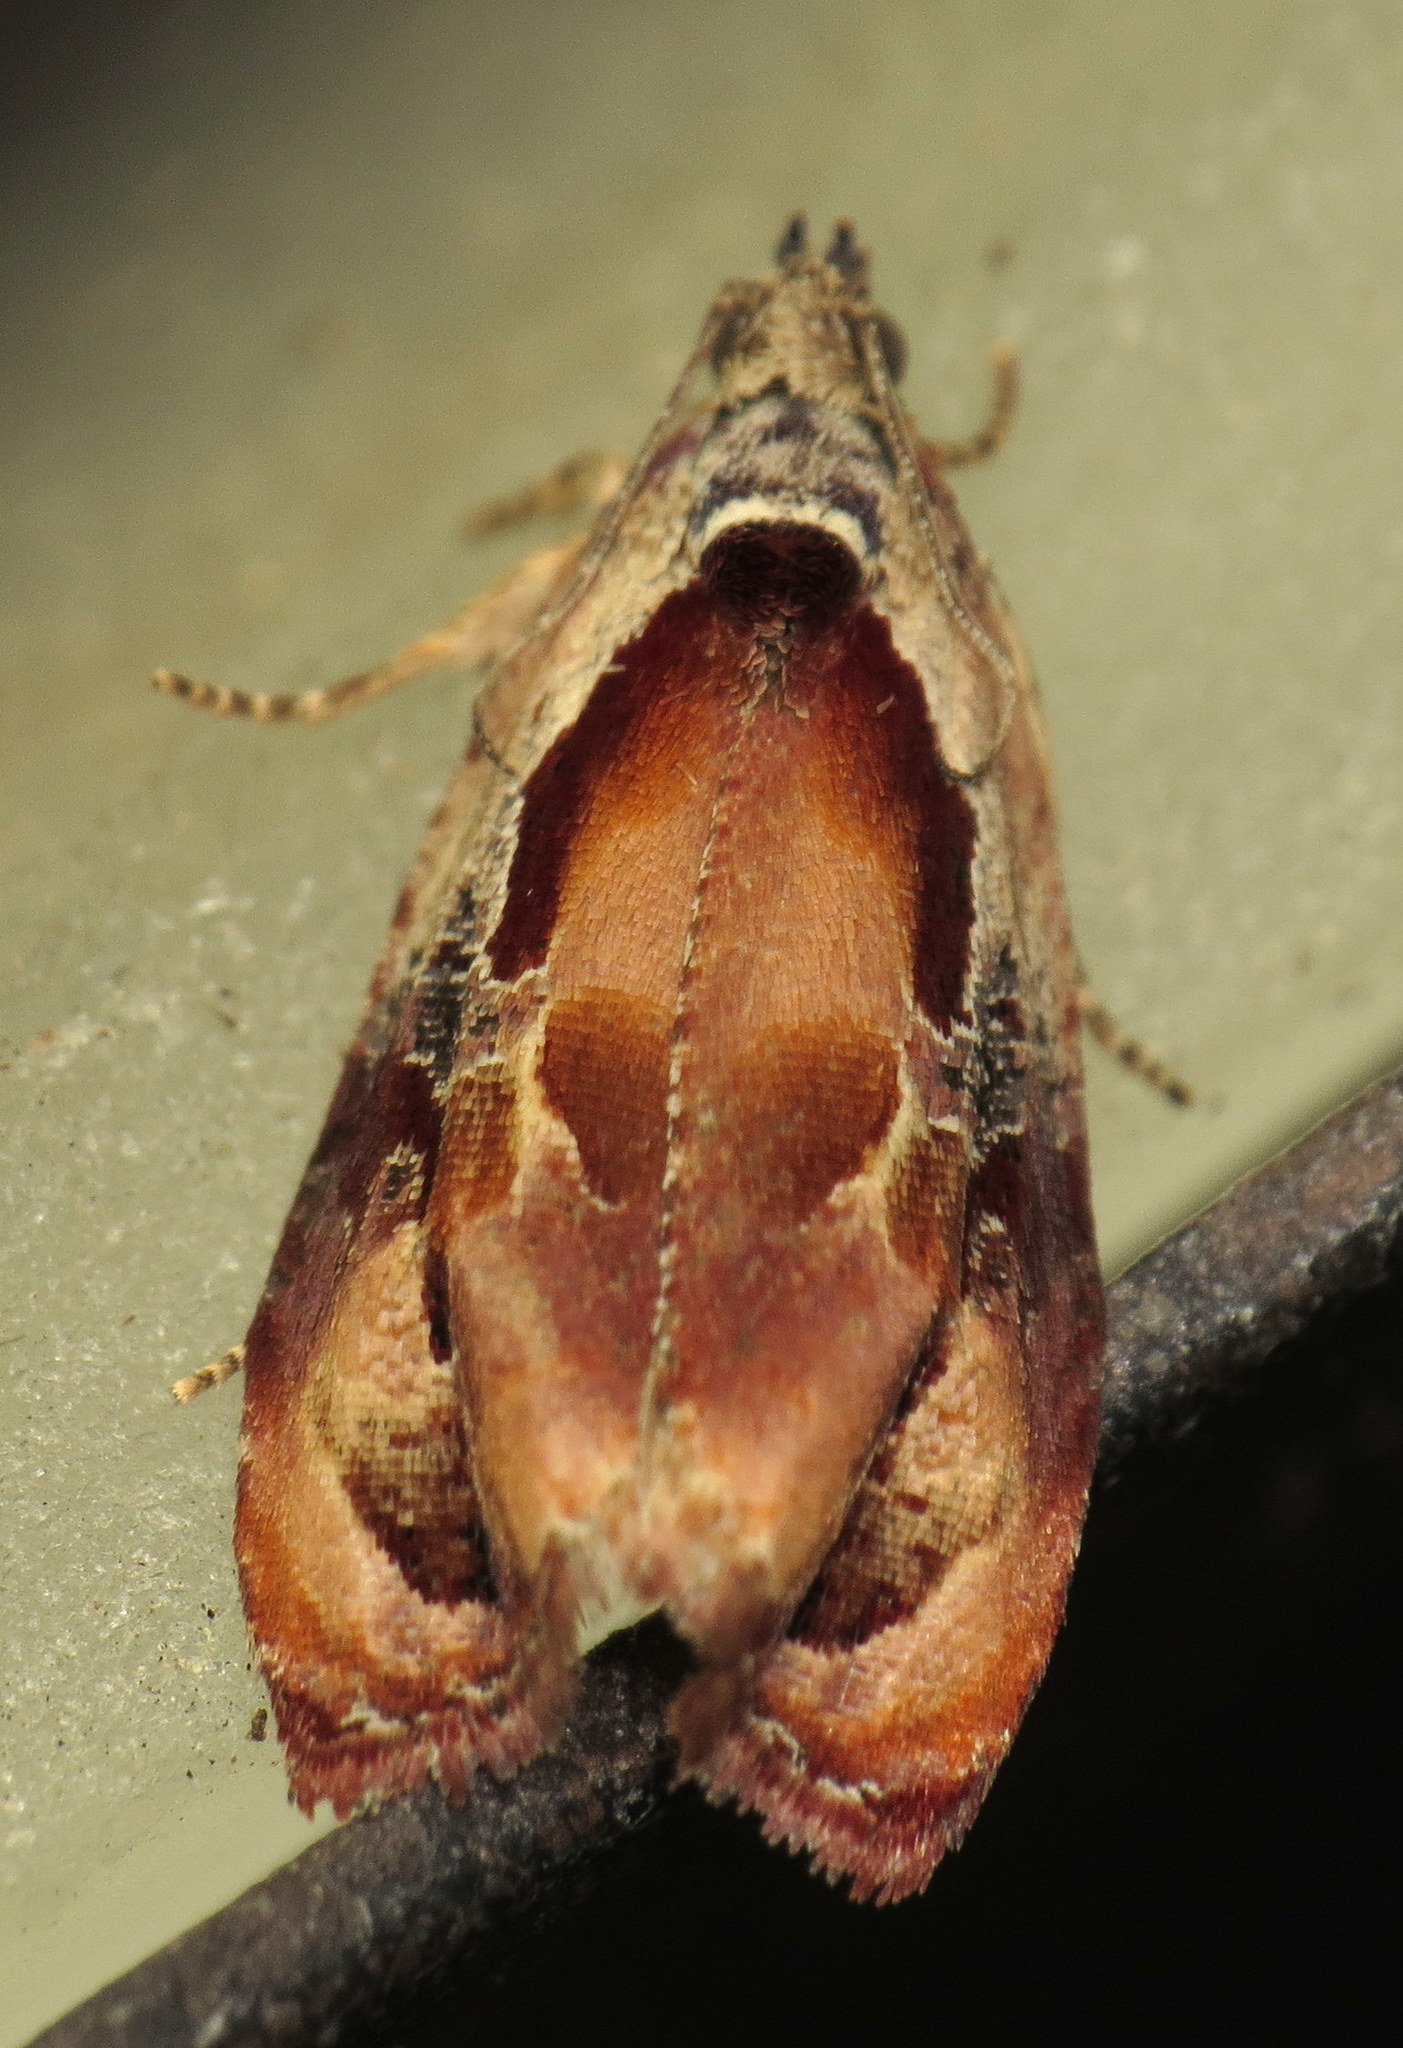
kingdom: Animalia
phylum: Arthropoda
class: Insecta
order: Lepidoptera
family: Tortricidae
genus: Zomaria
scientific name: Zomaria interruptolineana
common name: Broken-lined zomaria moth
